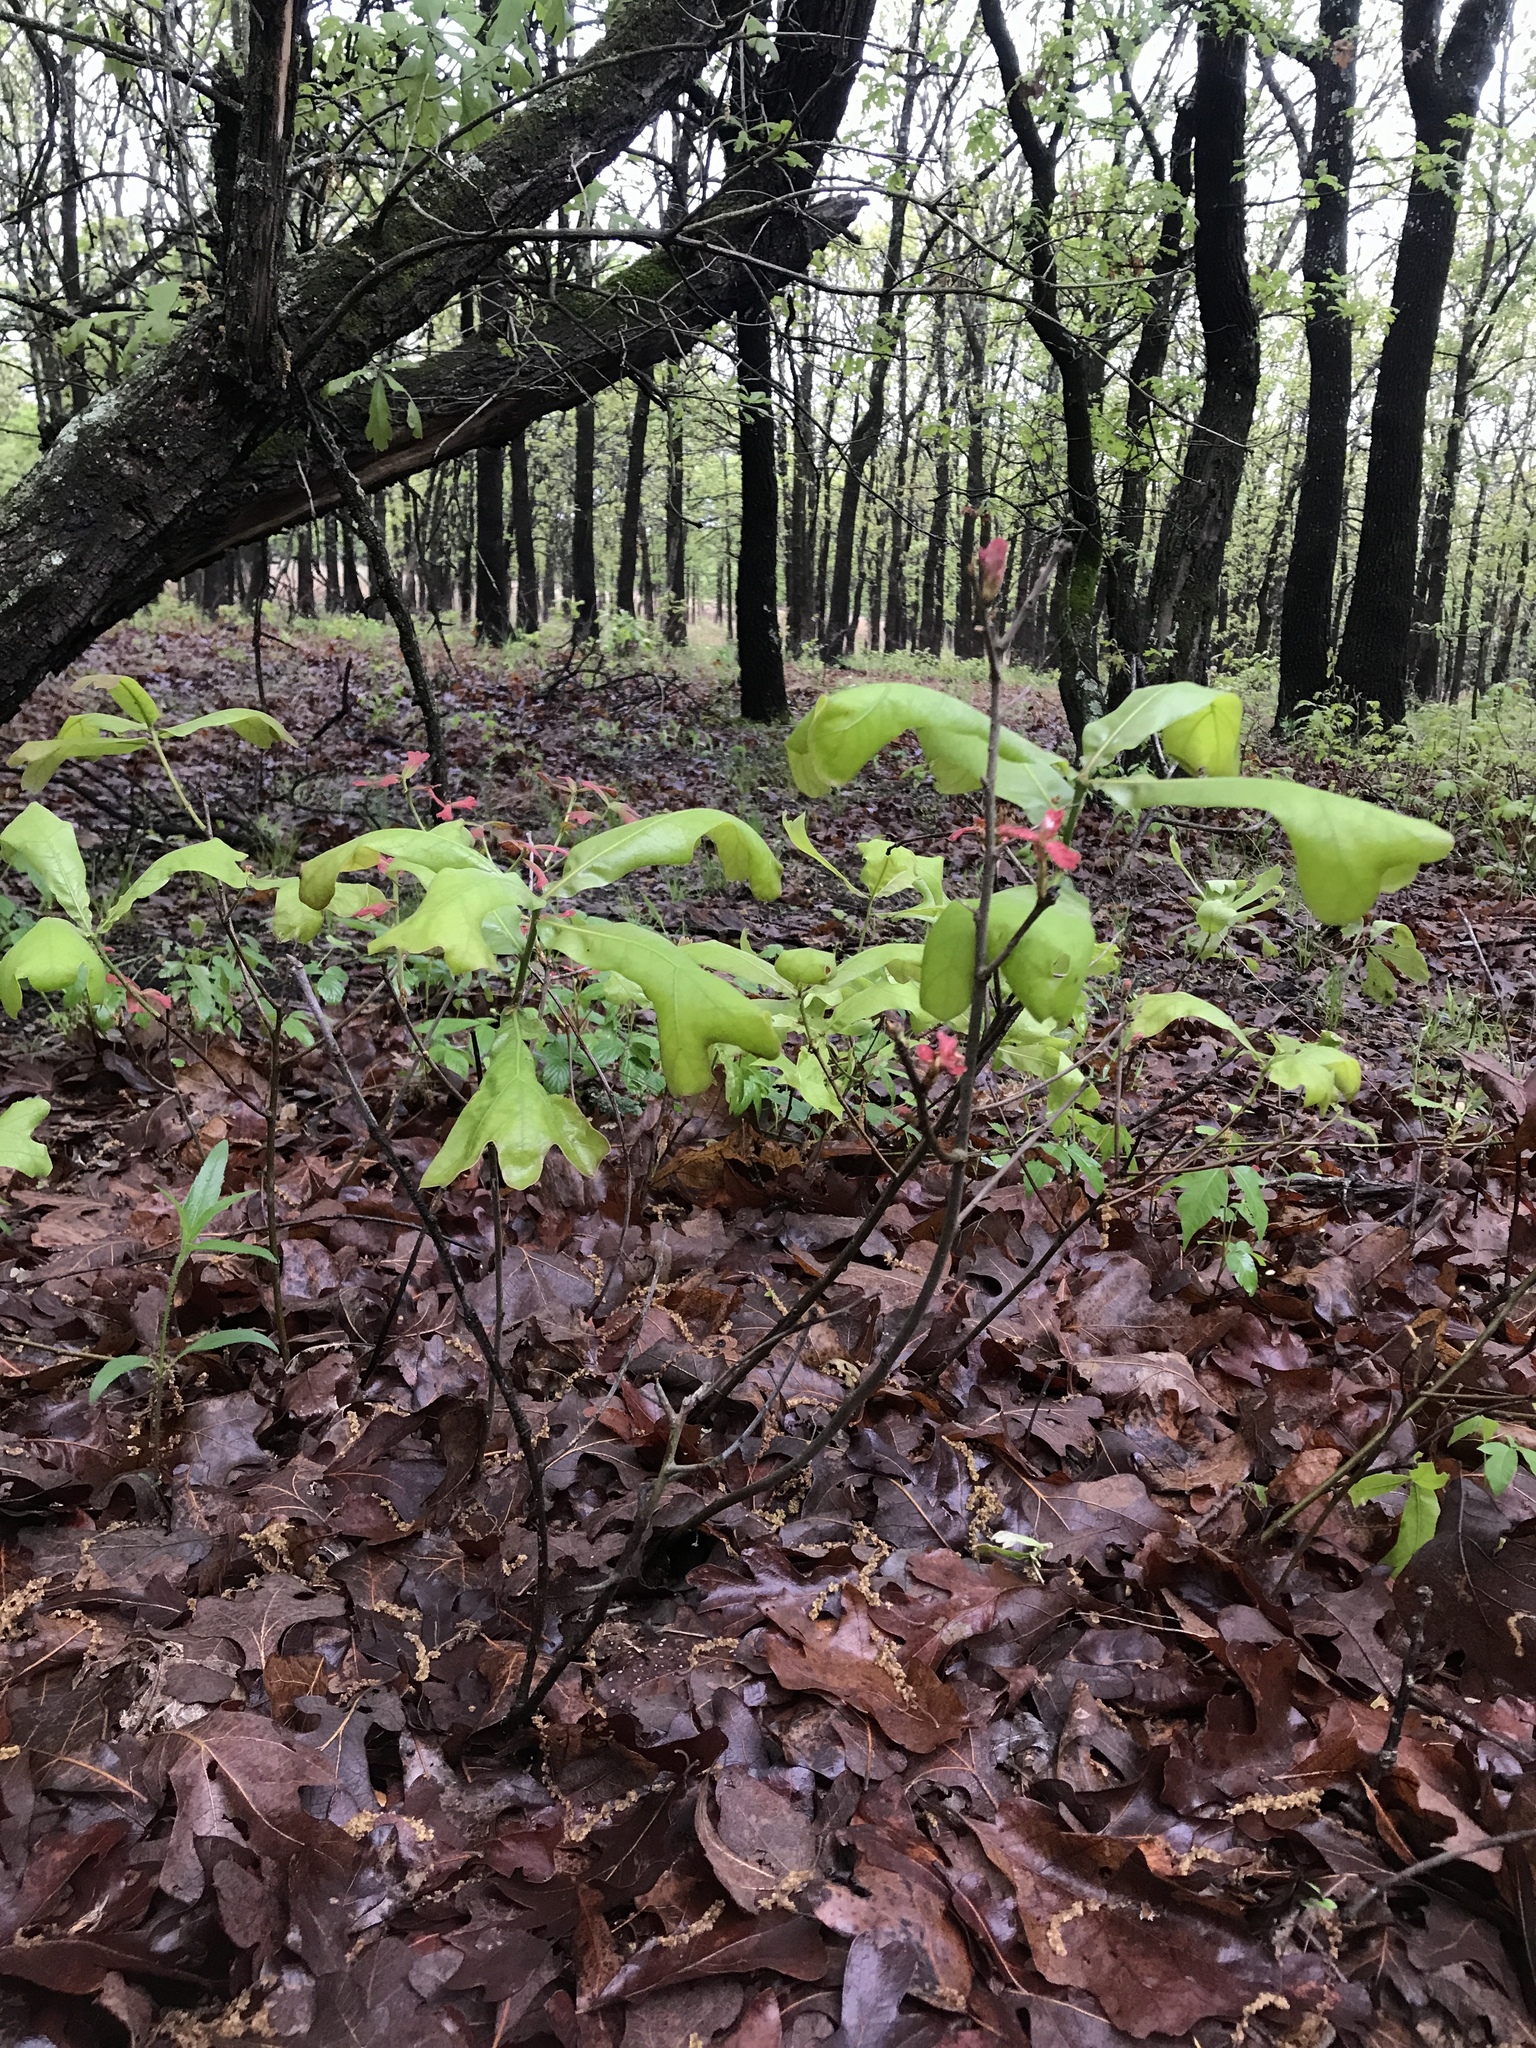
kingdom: Plantae
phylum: Tracheophyta
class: Magnoliopsida
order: Fagales
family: Fagaceae
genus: Quercus
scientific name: Quercus marilandica
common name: Blackjack oak
